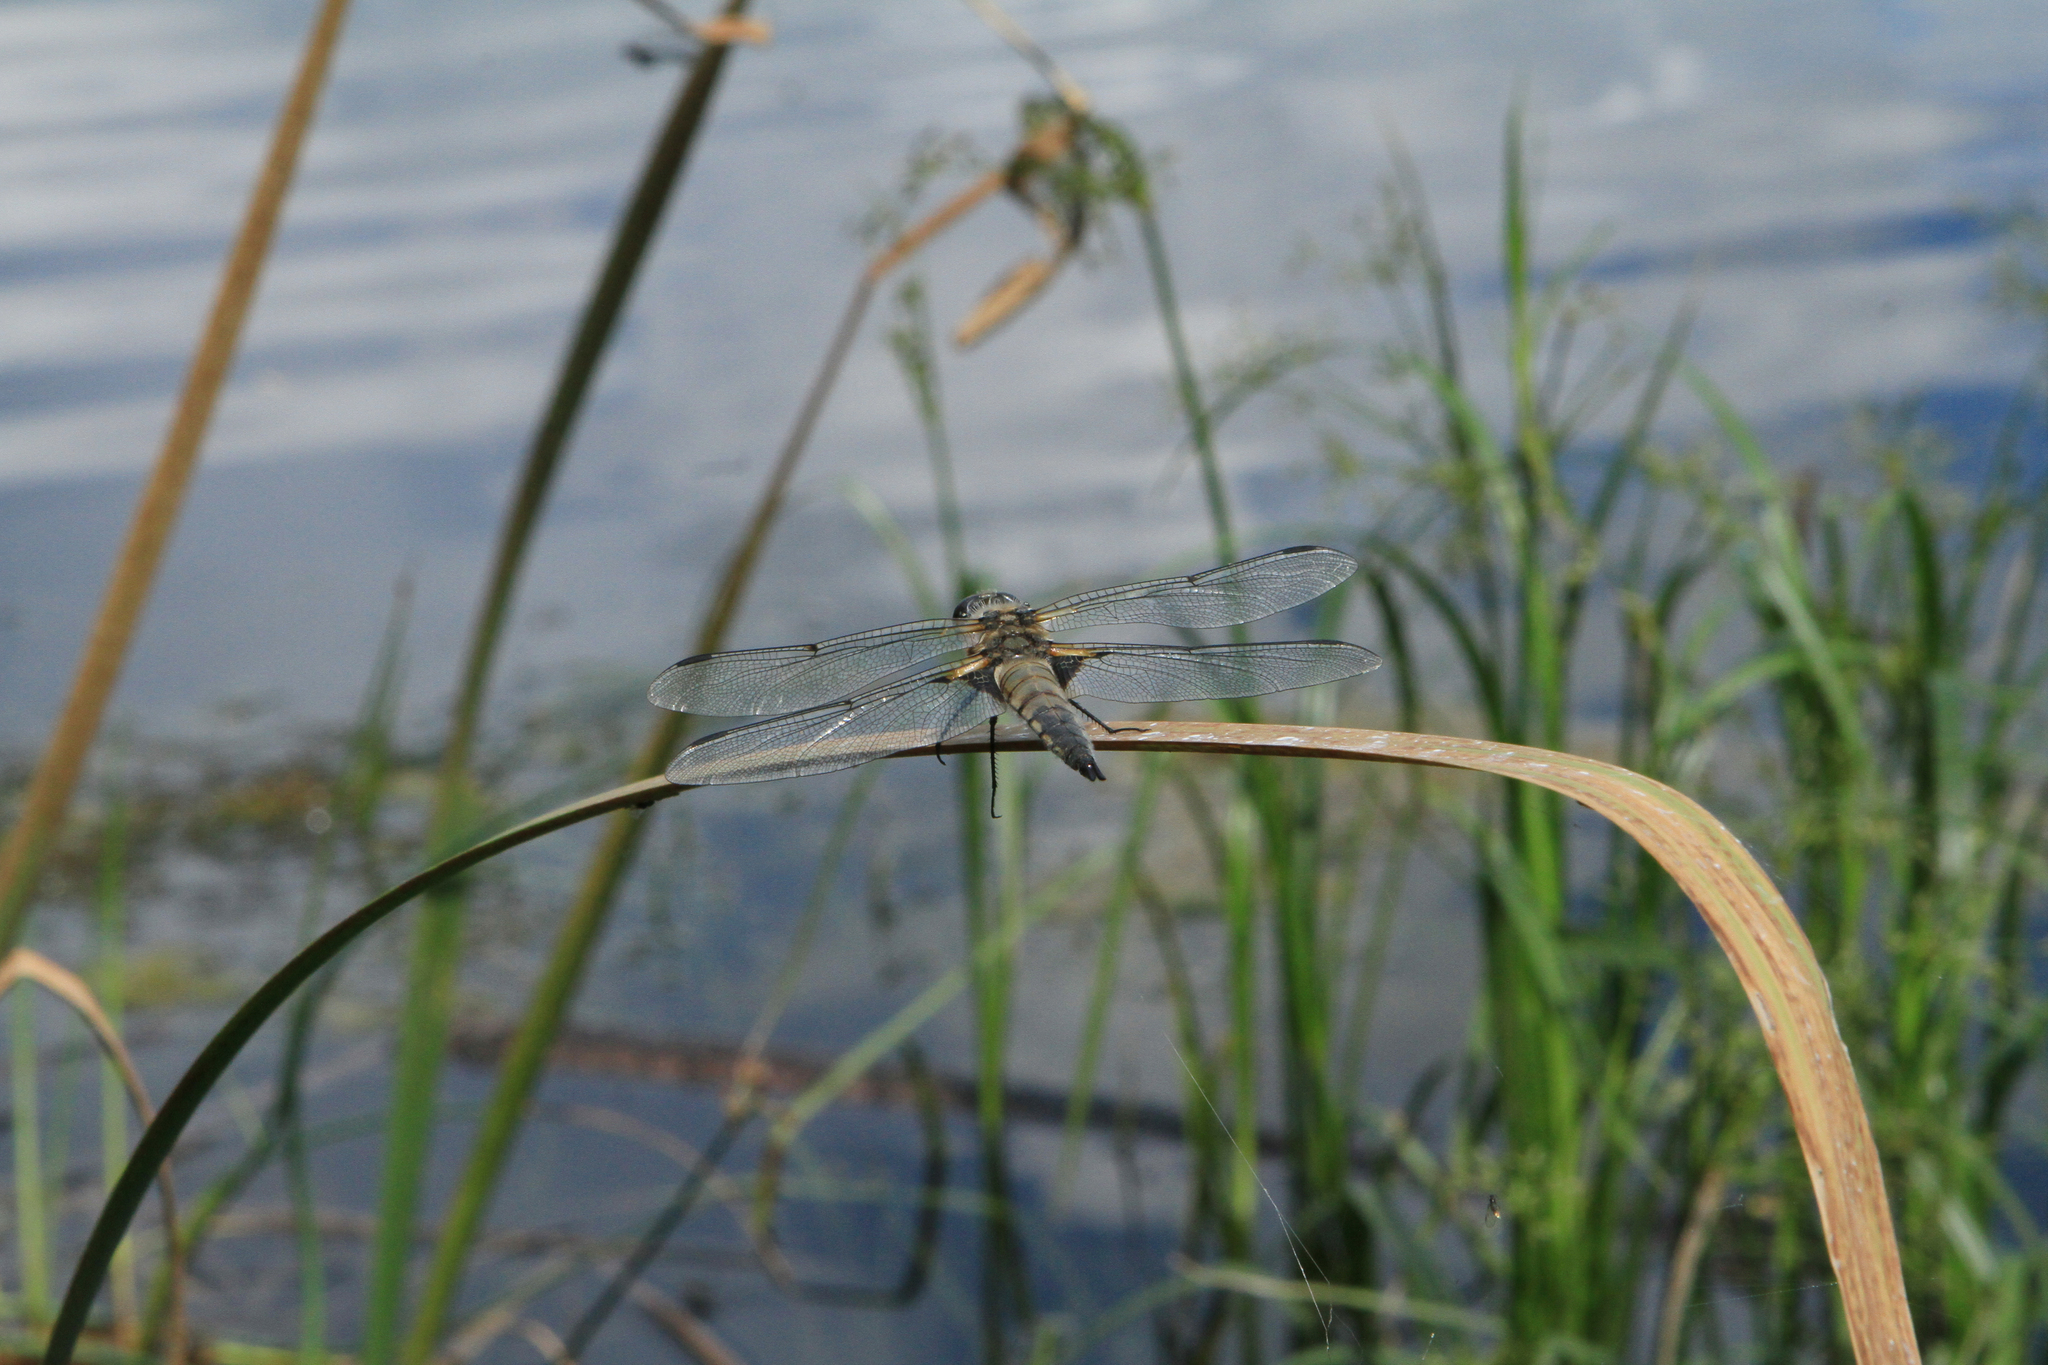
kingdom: Animalia
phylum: Arthropoda
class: Insecta
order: Odonata
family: Libellulidae
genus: Libellula
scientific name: Libellula quadrimaculata
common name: Four-spotted chaser
